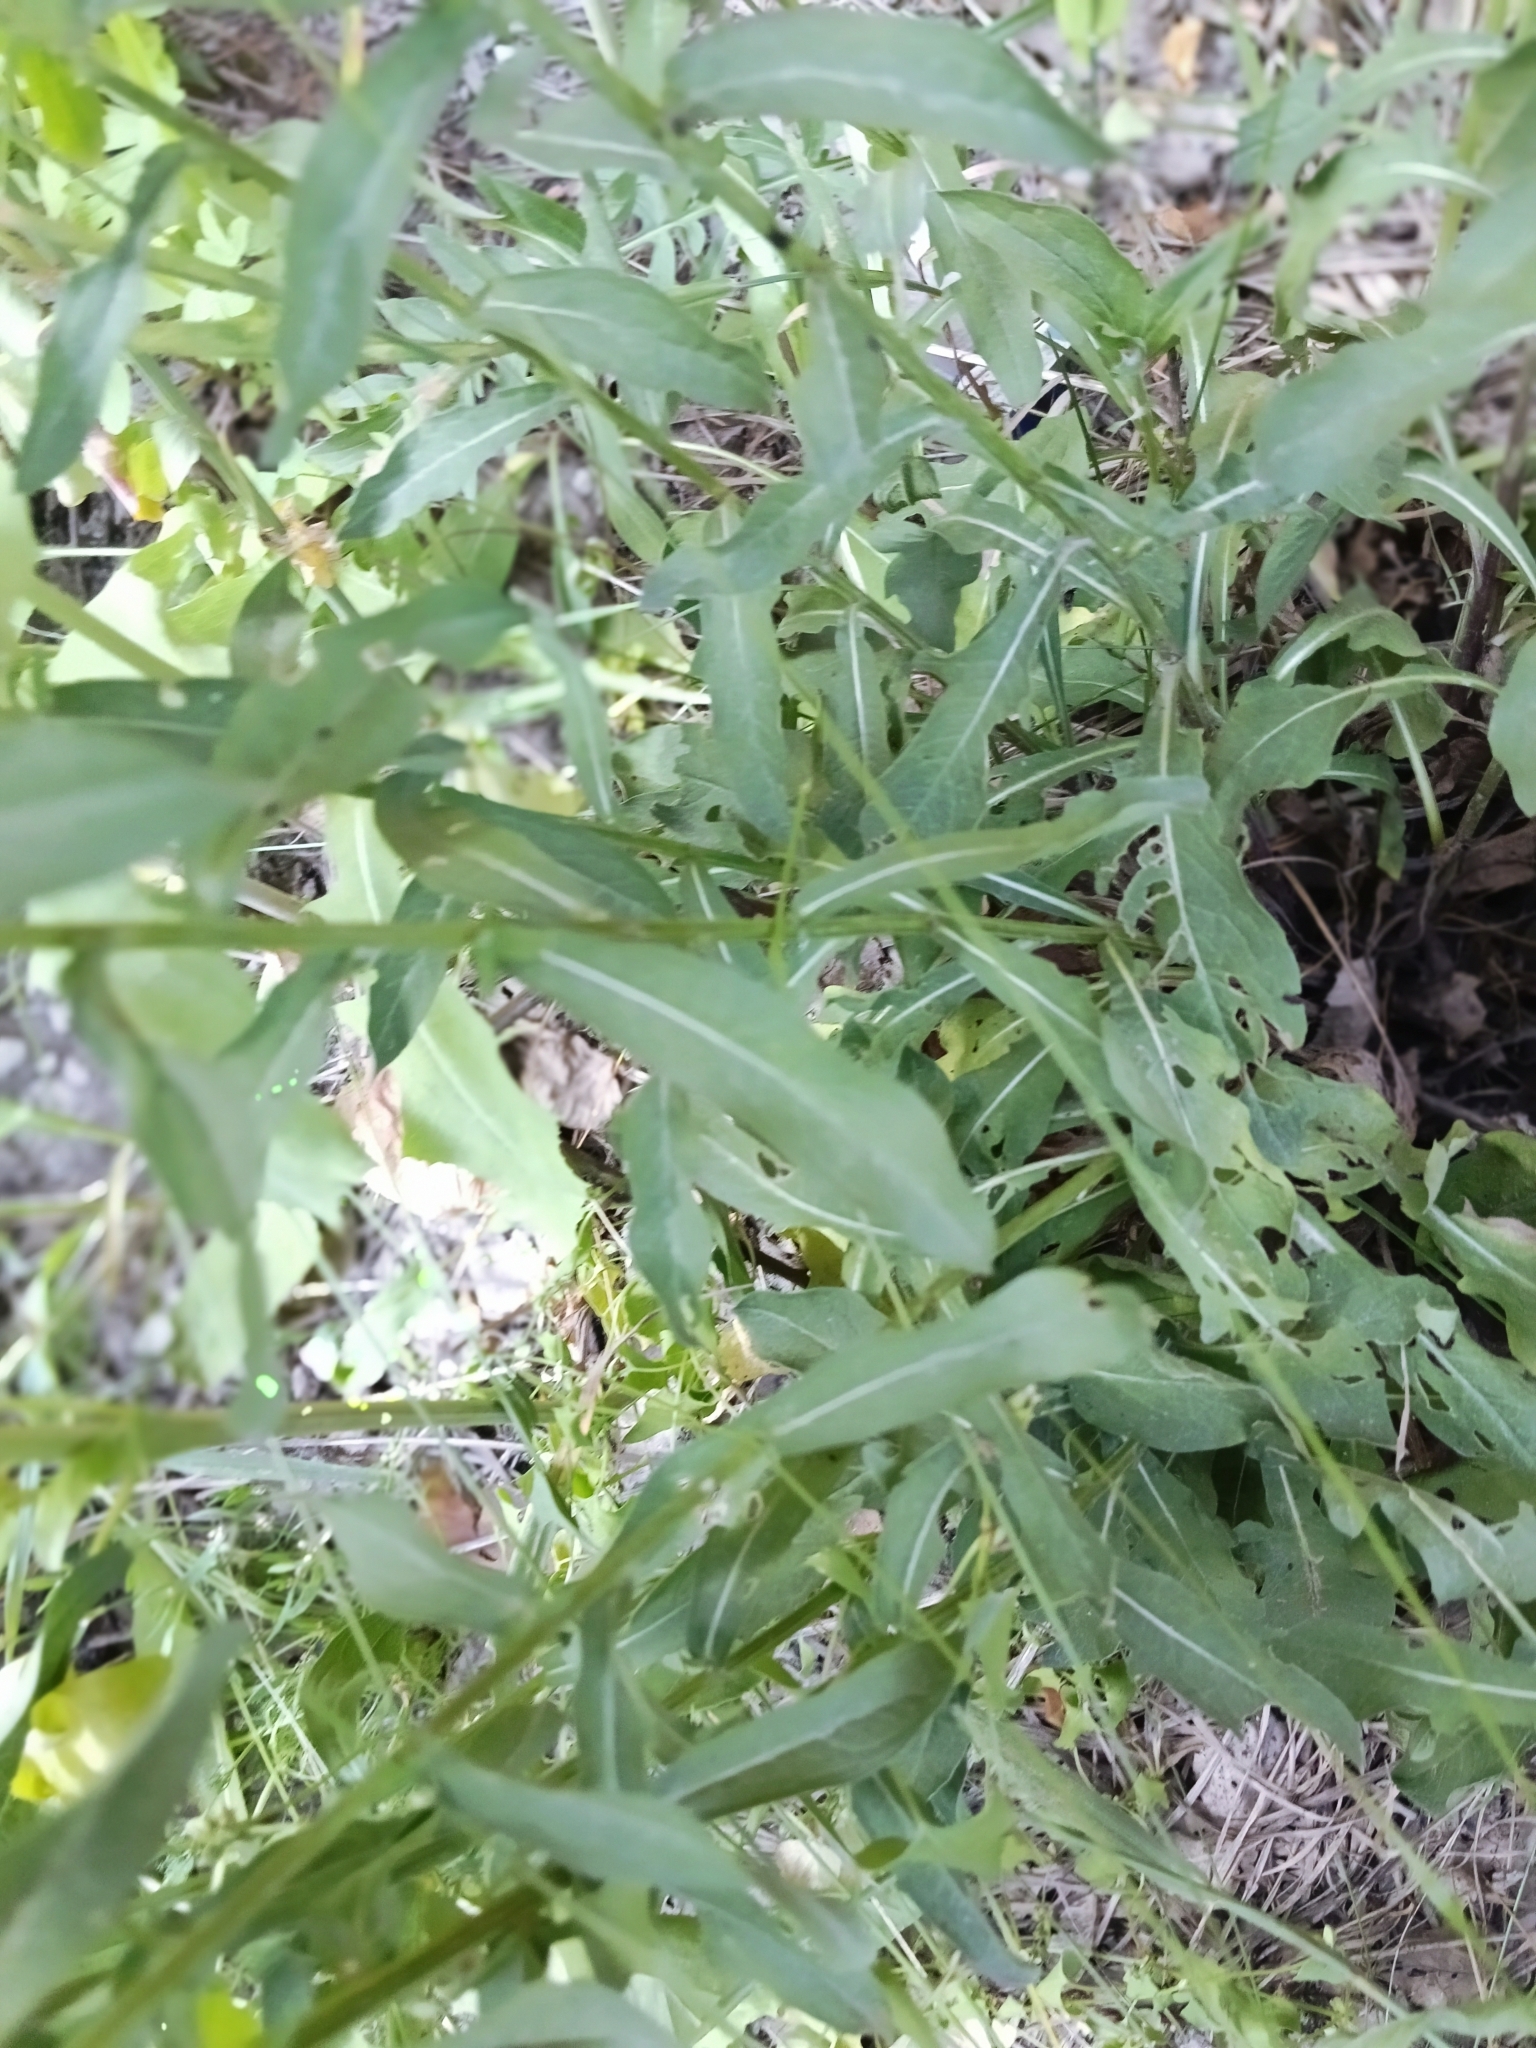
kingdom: Plantae
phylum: Tracheophyta
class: Magnoliopsida
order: Asterales
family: Asteraceae
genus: Centaurea
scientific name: Centaurea jacea
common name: Brown knapweed
